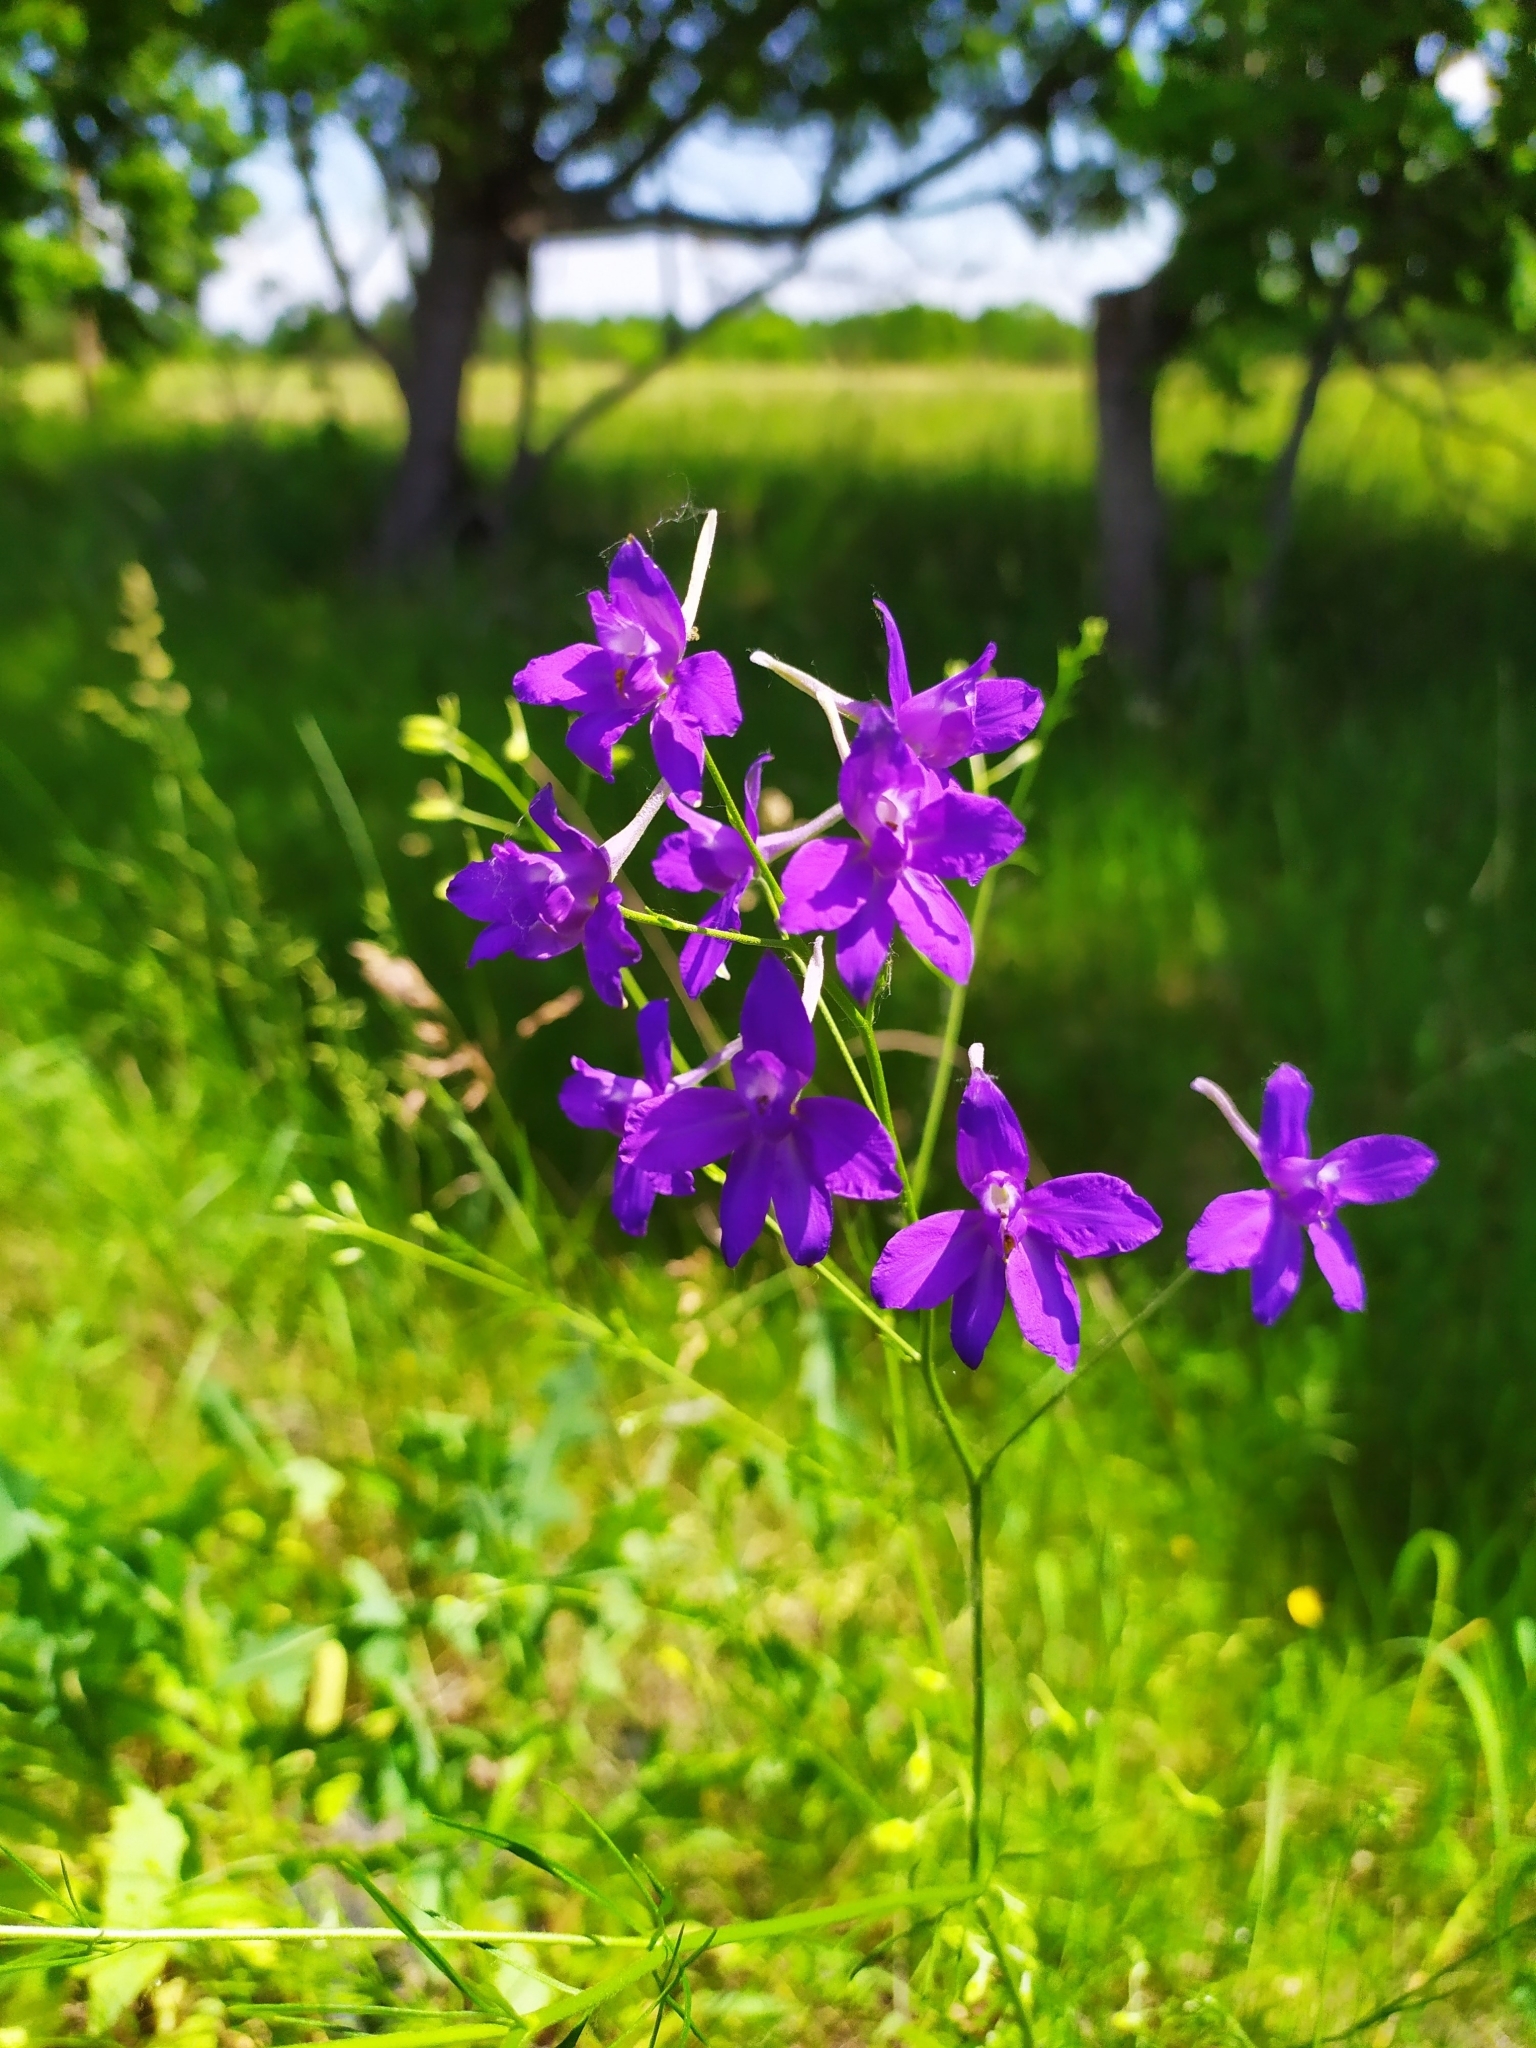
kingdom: Plantae
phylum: Tracheophyta
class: Magnoliopsida
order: Ranunculales
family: Ranunculaceae
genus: Delphinium
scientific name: Delphinium consolida
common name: Branching larkspur
